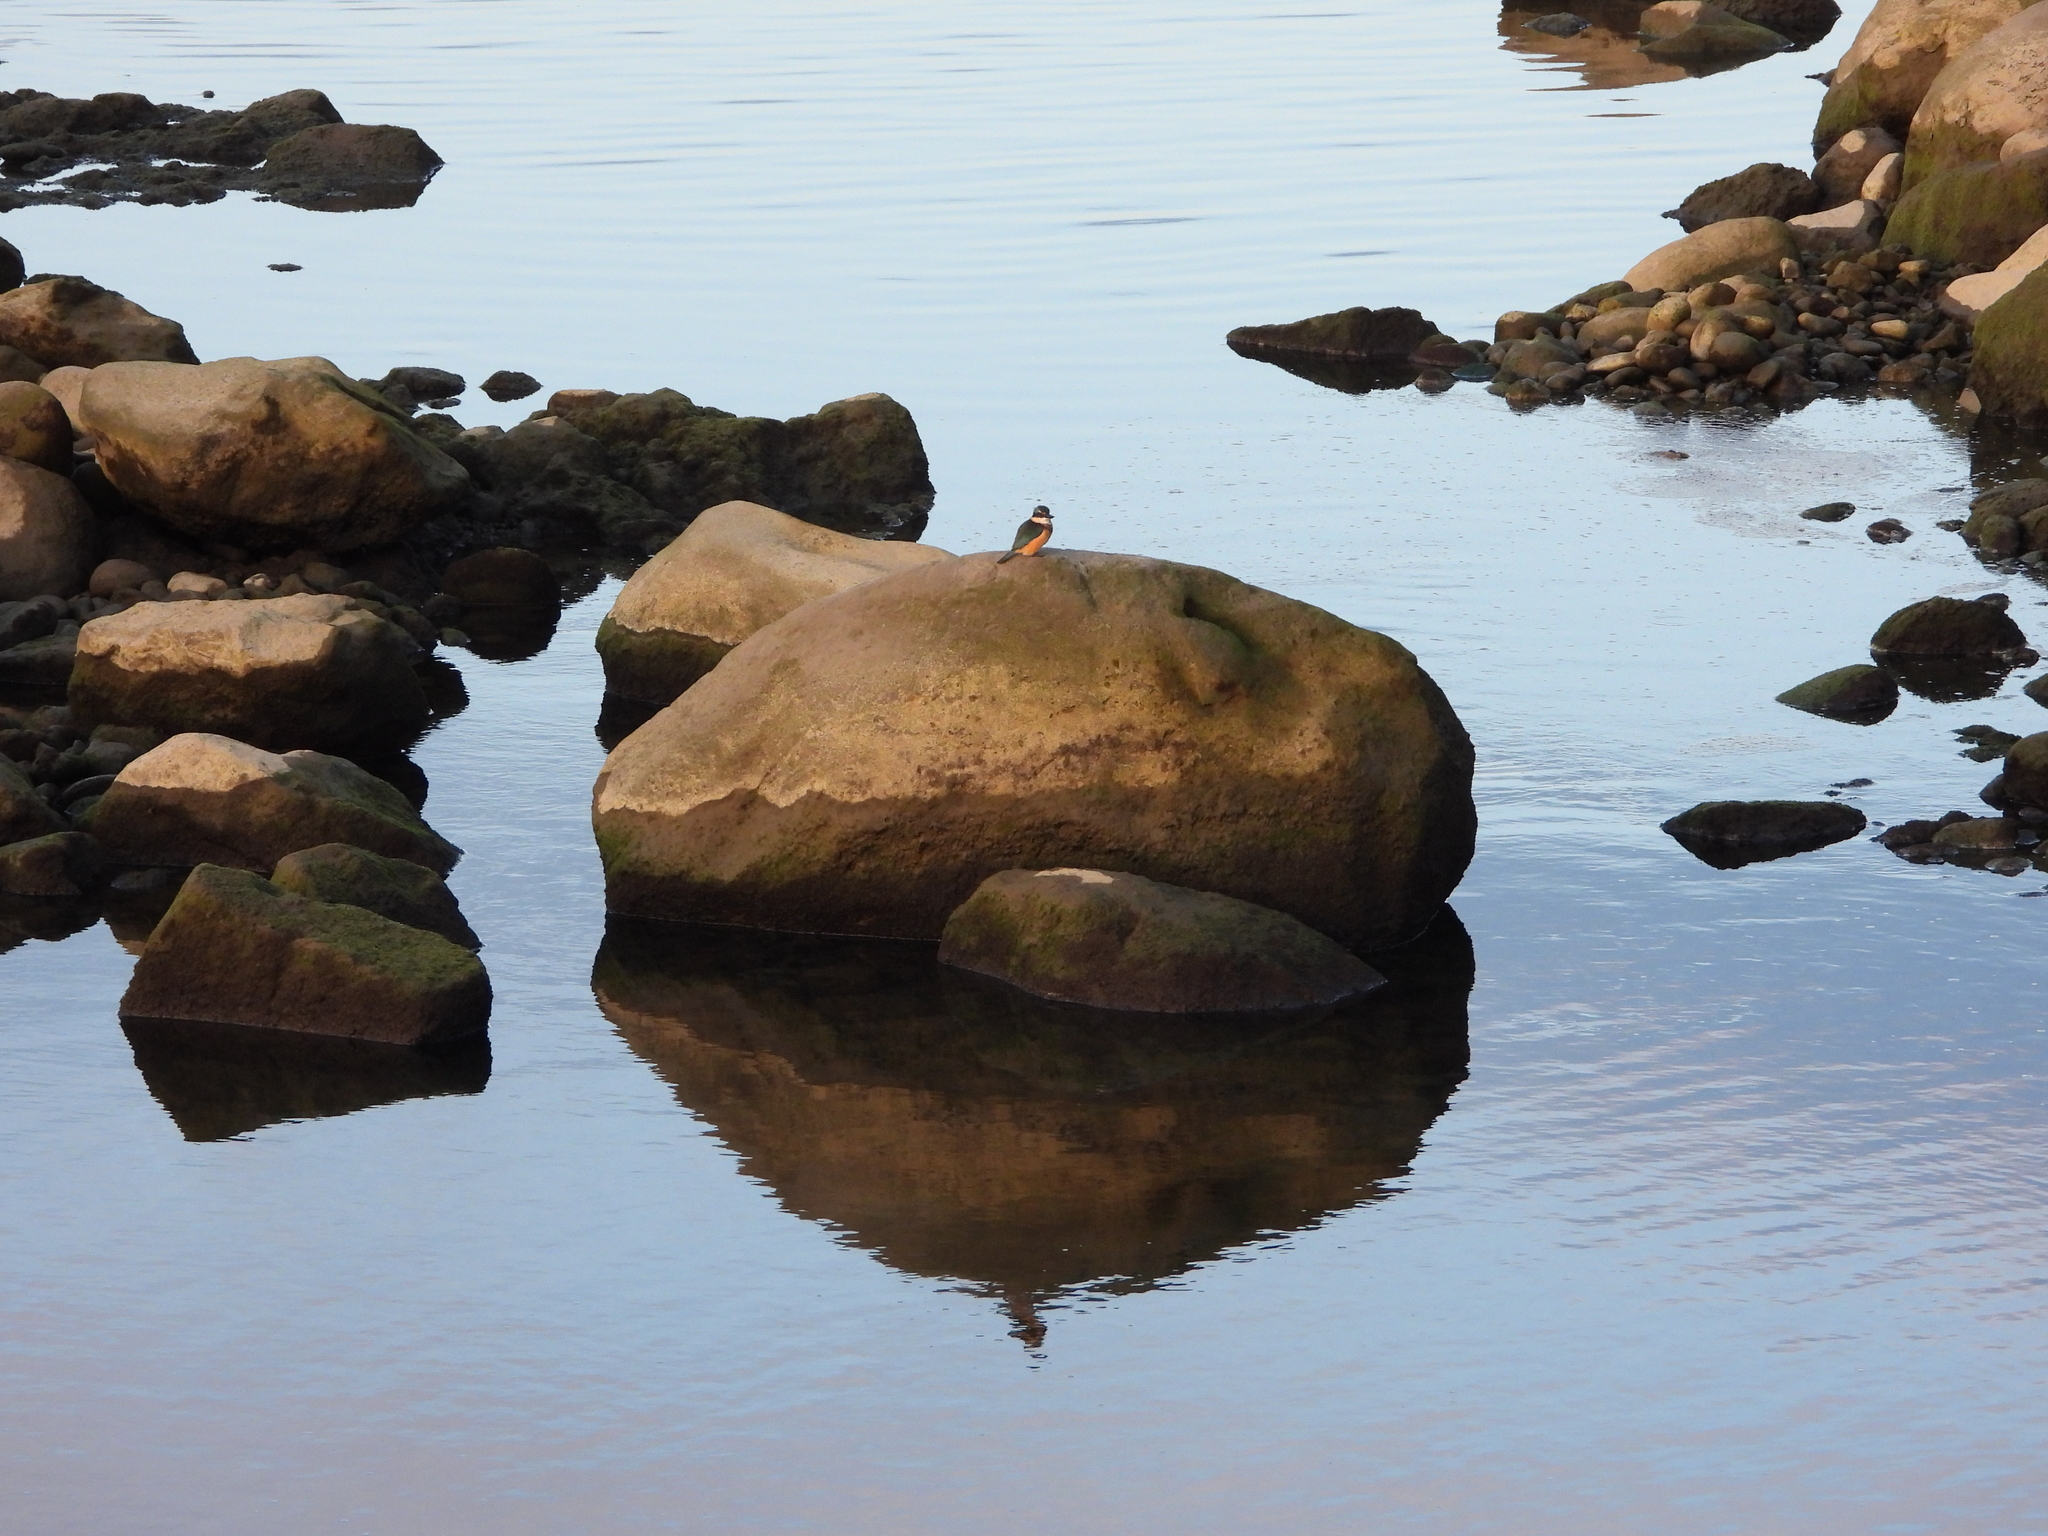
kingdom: Animalia
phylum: Chordata
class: Aves
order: Coraciiformes
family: Alcedinidae
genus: Todiramphus
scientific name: Todiramphus sanctus
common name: Sacred kingfisher
